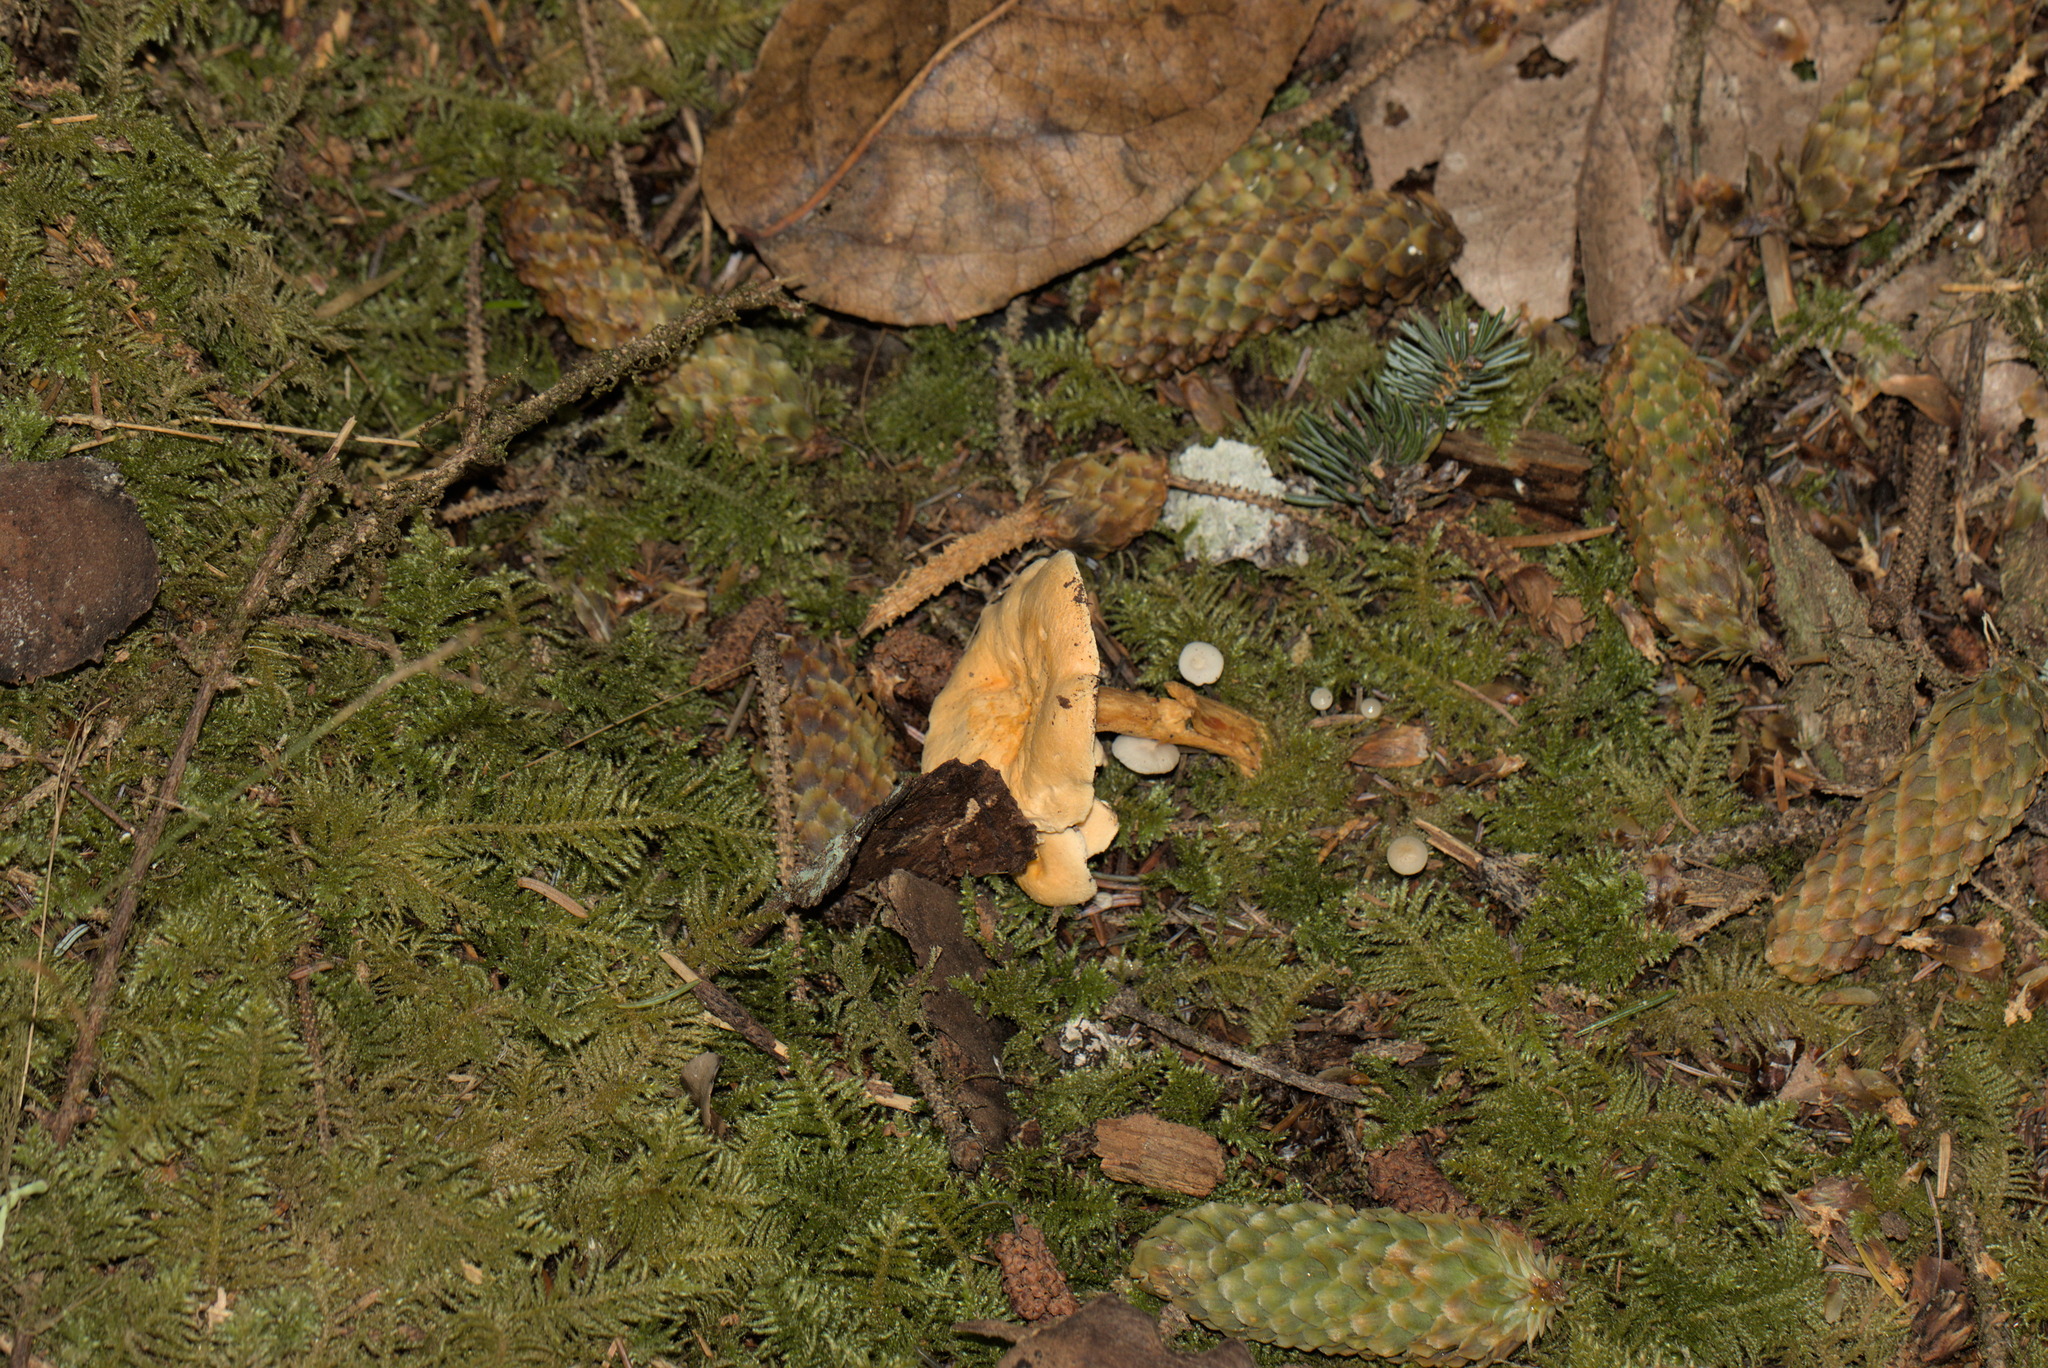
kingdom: Fungi
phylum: Basidiomycota
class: Agaricomycetes
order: Boletales
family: Hygrophoropsidaceae
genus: Hygrophoropsis
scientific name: Hygrophoropsis aurantiaca
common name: False chanterelle
